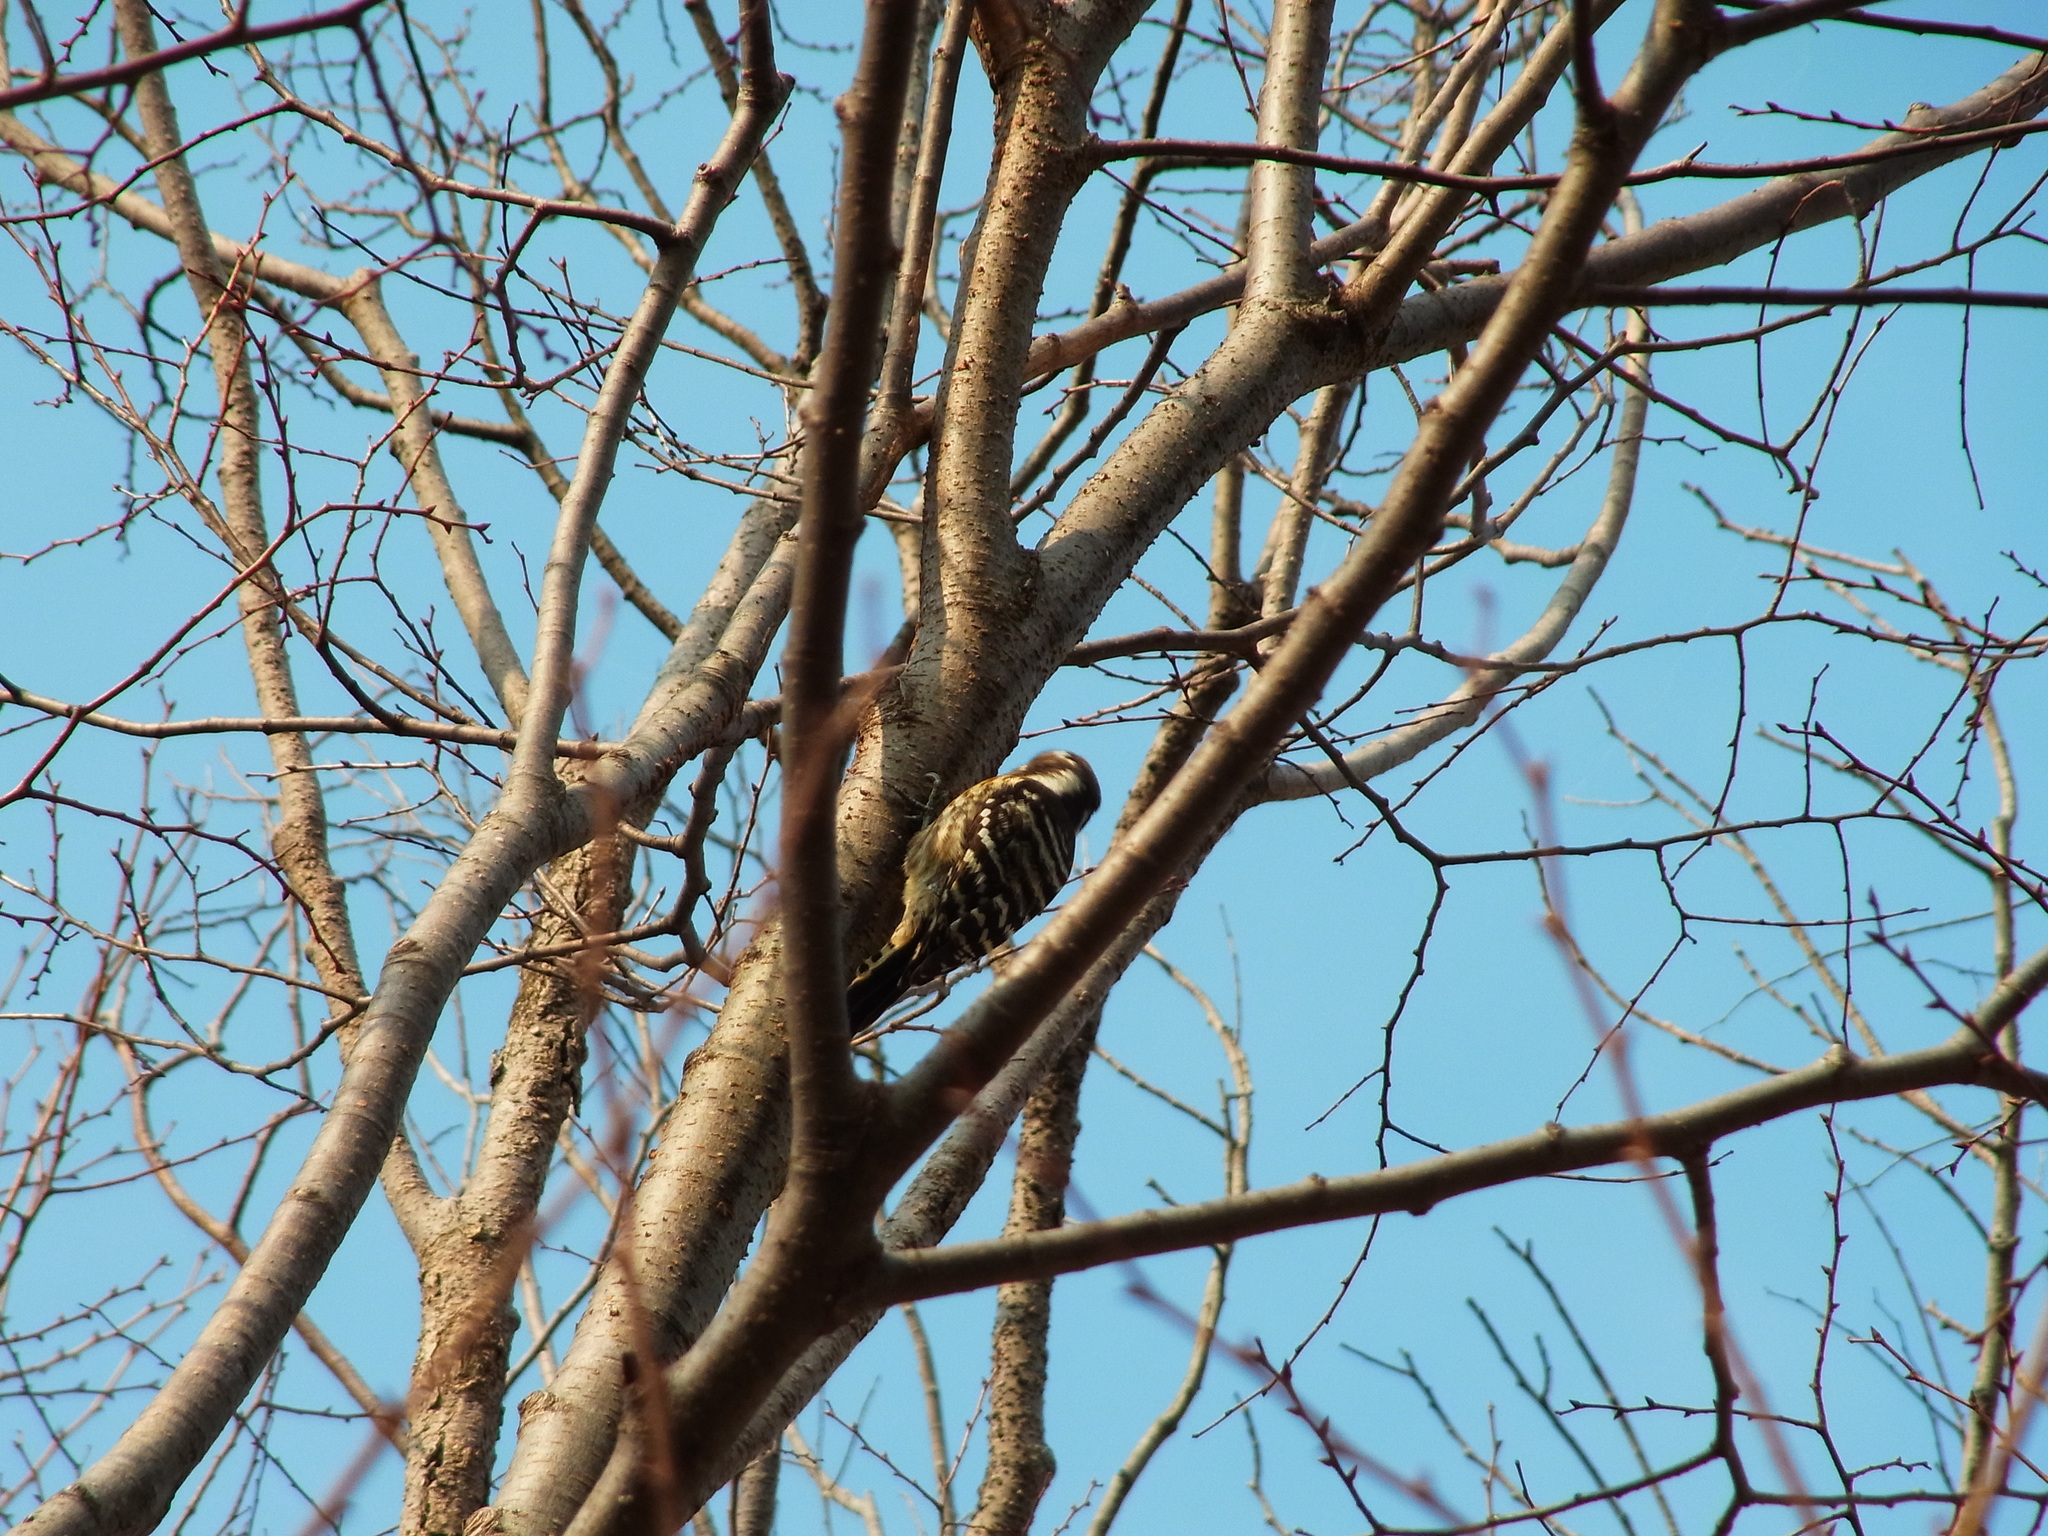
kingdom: Animalia
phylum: Chordata
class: Aves
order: Piciformes
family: Picidae
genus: Yungipicus
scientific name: Yungipicus kizuki
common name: Japanese pygmy woodpecker
